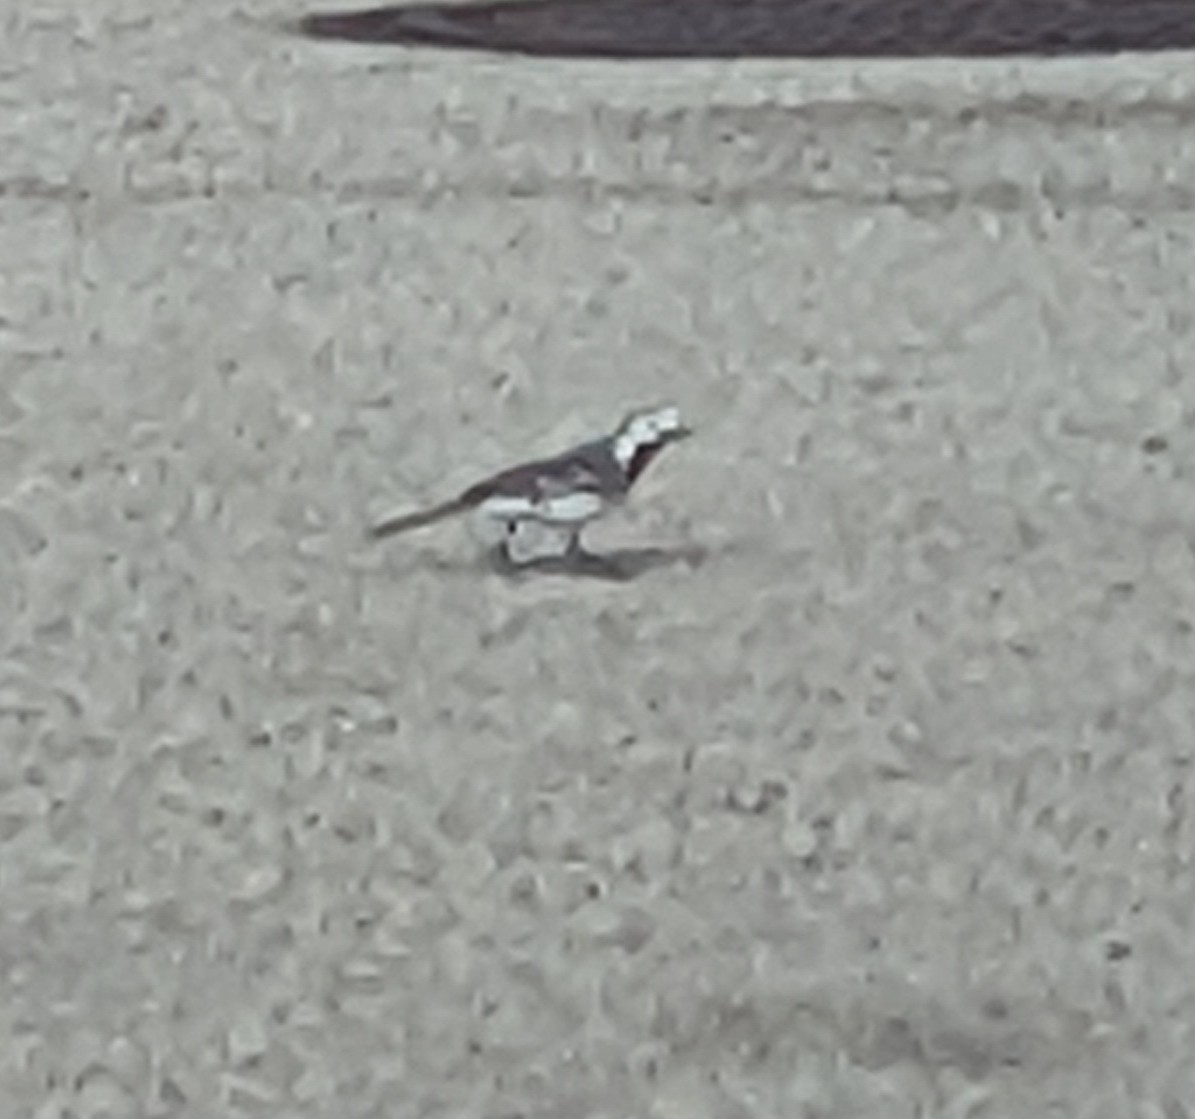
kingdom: Animalia
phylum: Chordata
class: Aves
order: Passeriformes
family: Motacillidae
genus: Motacilla
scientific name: Motacilla alba
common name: White wagtail
